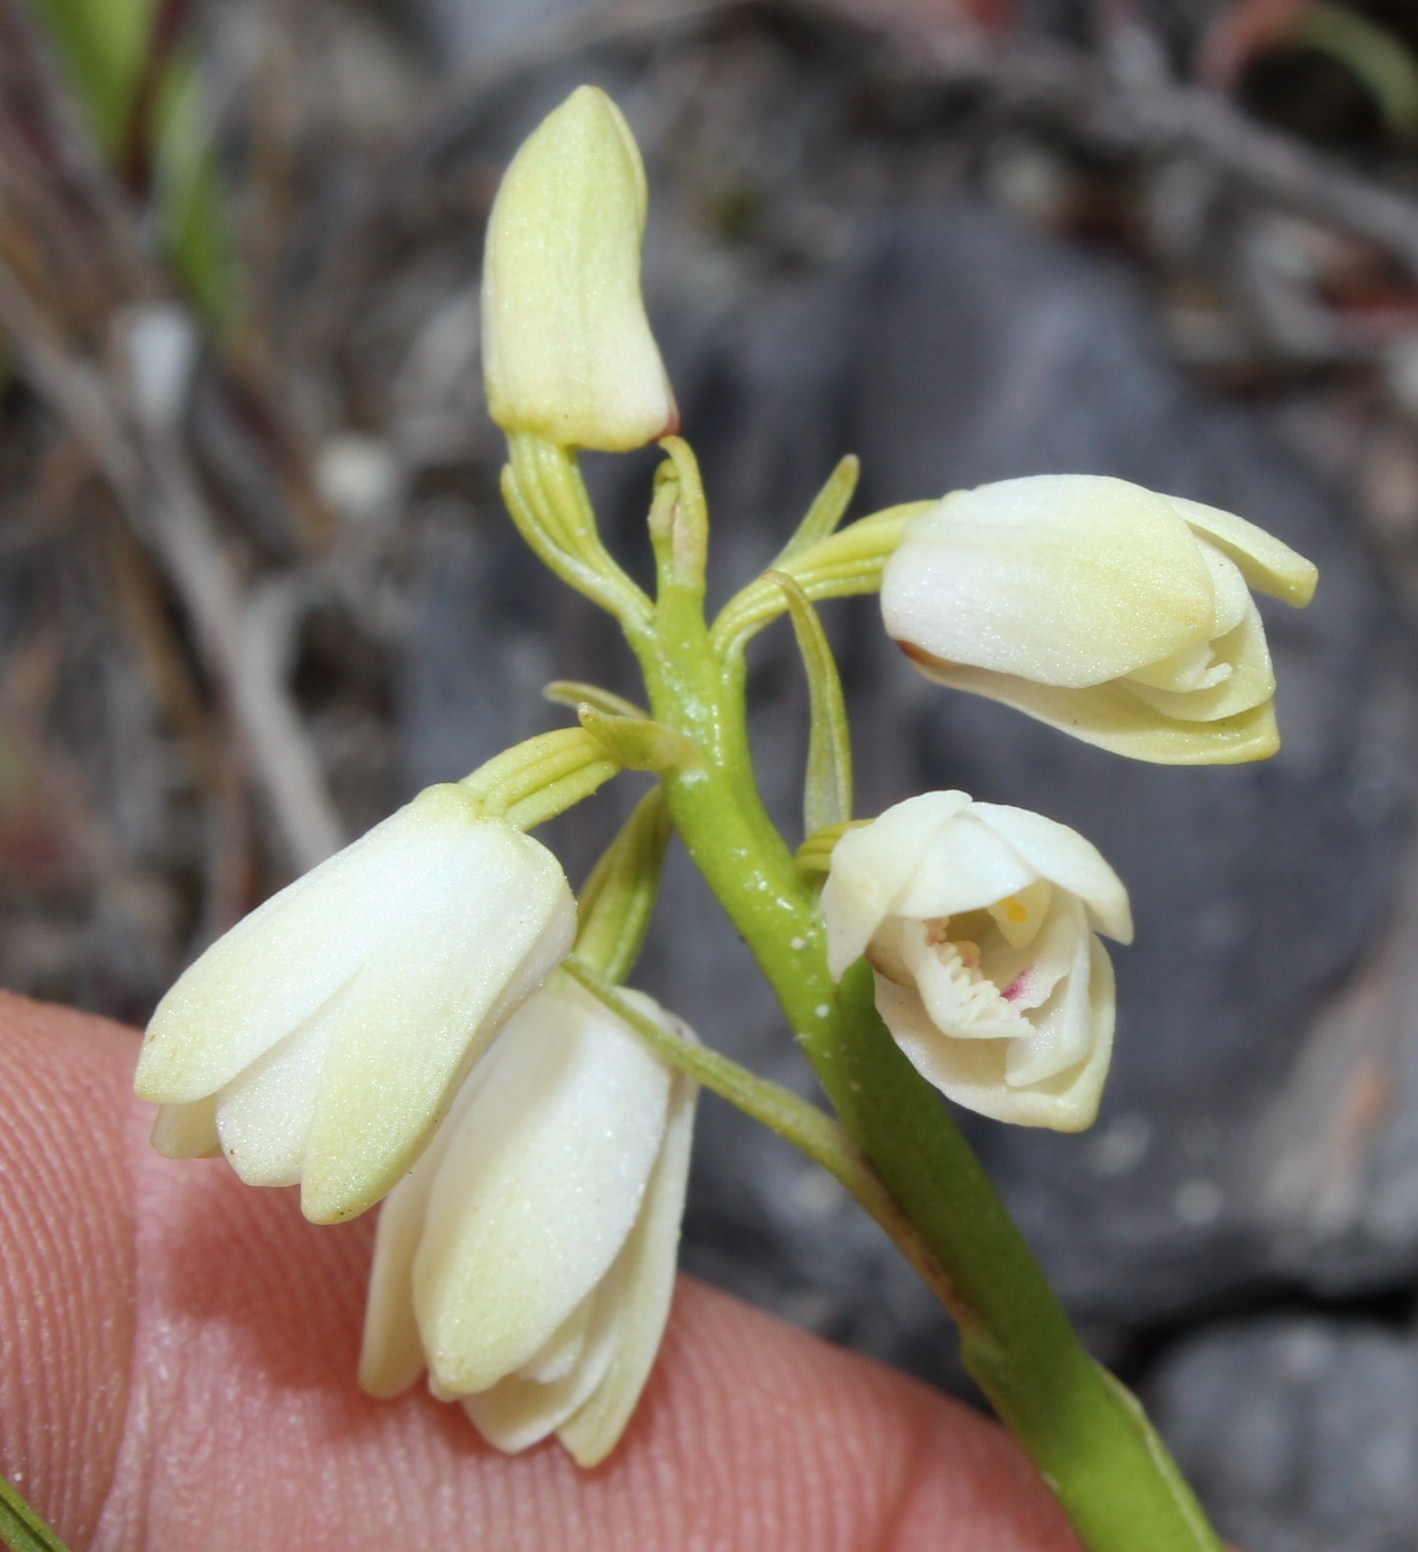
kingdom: Plantae
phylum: Tracheophyta
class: Liliopsida
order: Asparagales
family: Orchidaceae
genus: Eulophia
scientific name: Eulophia aculeata
